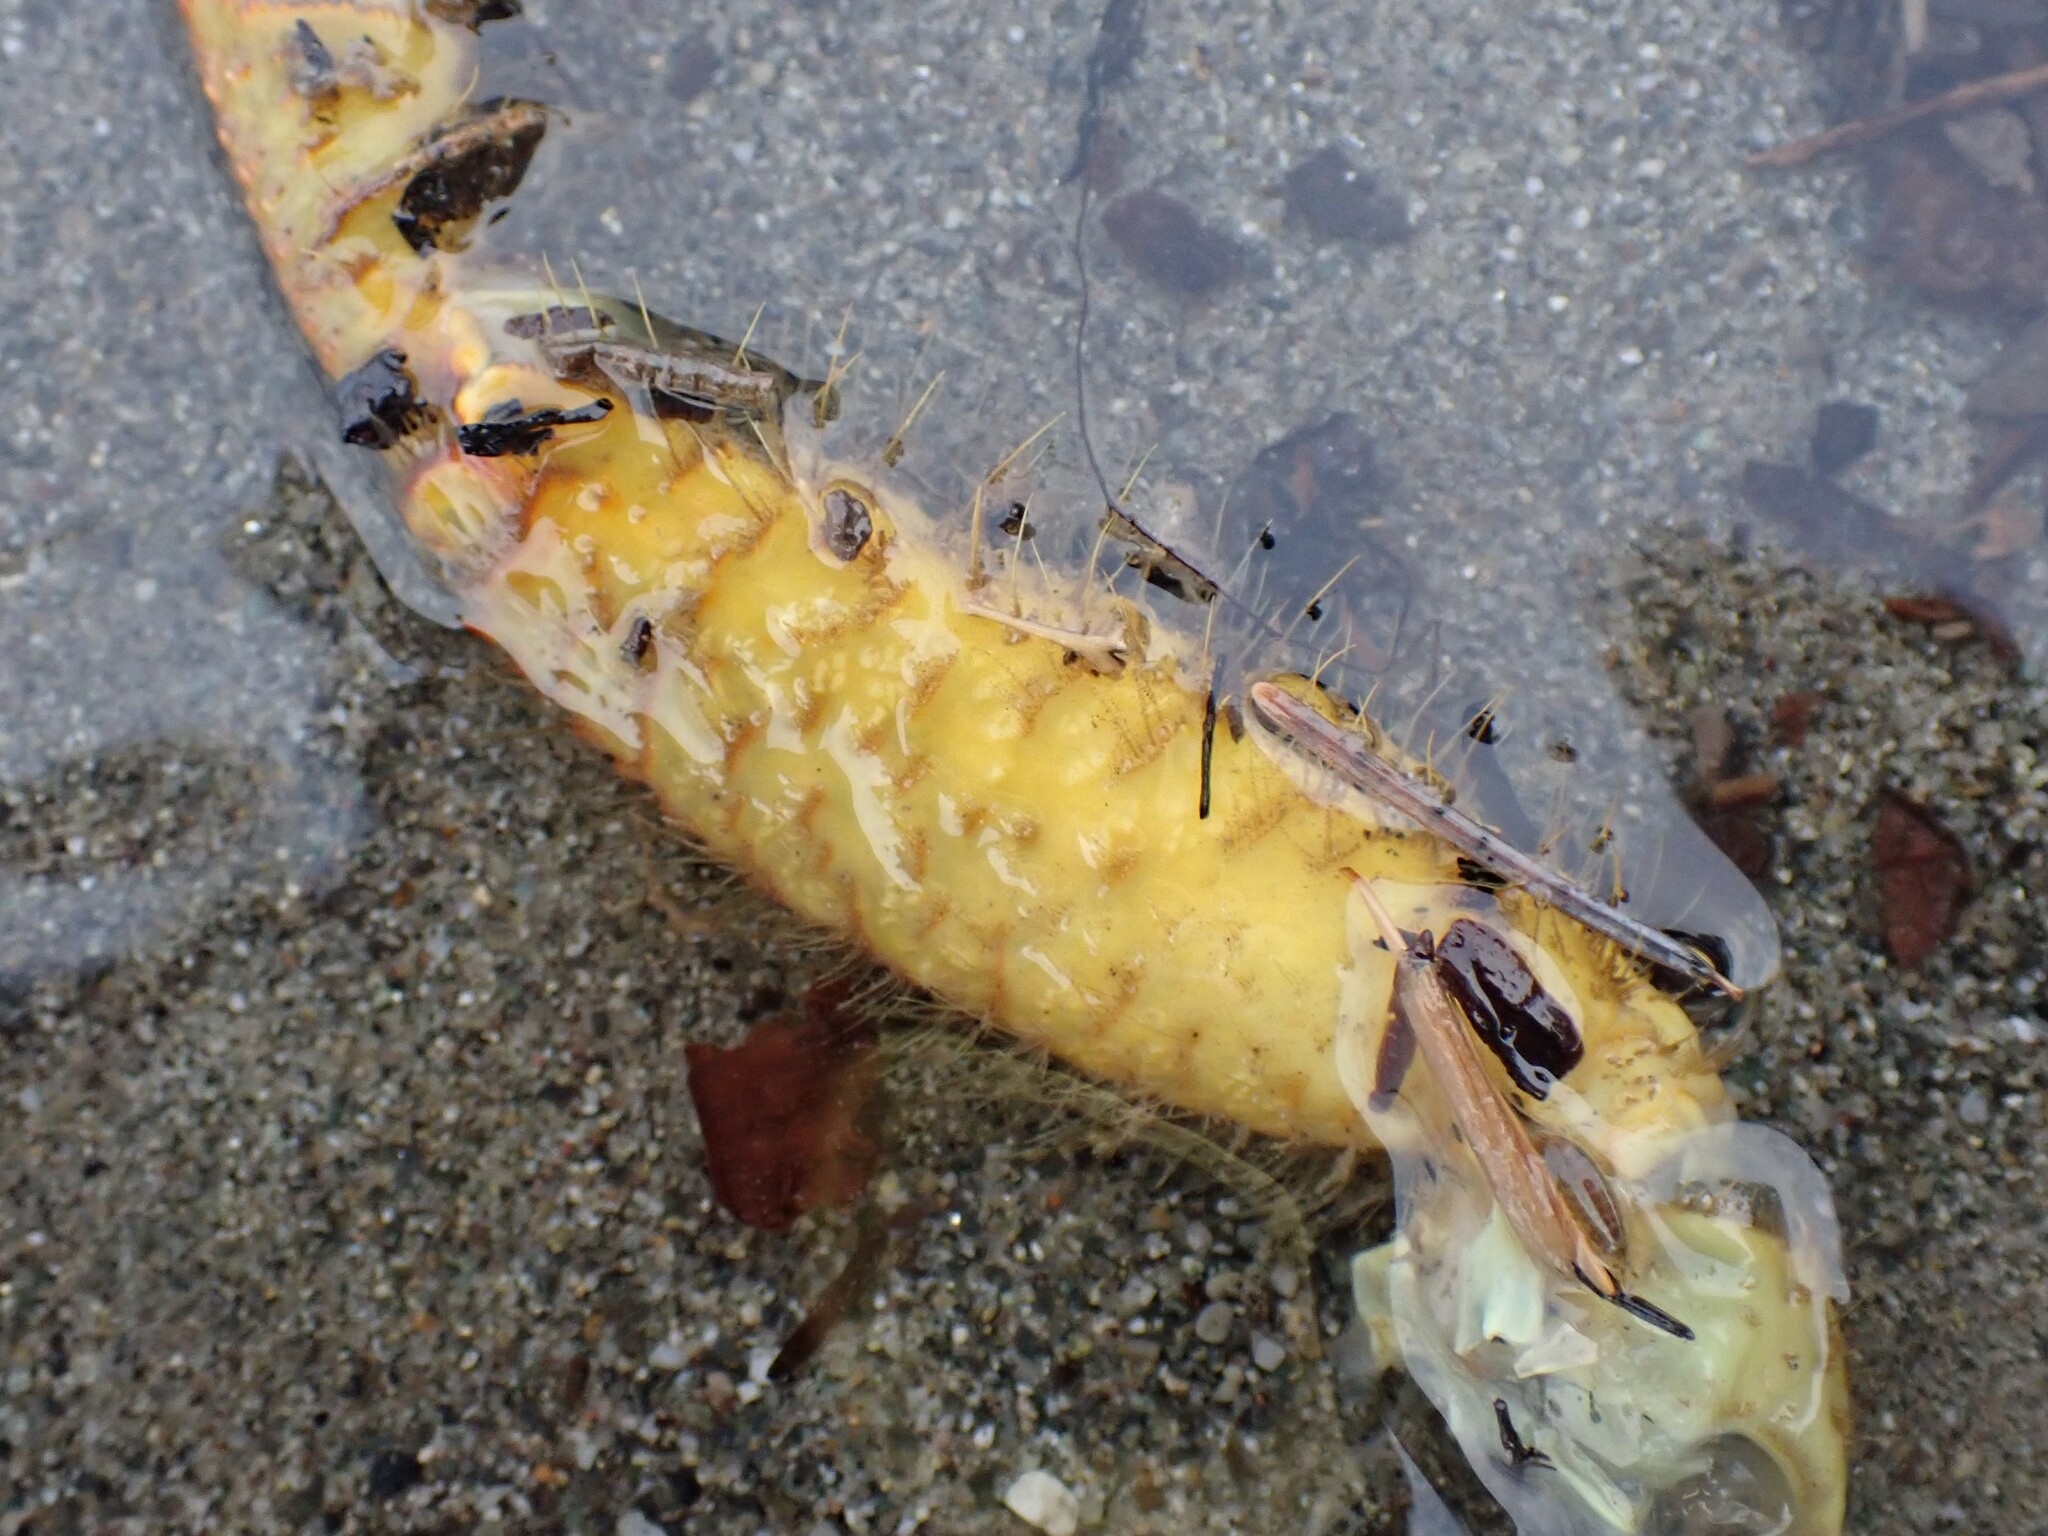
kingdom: Animalia
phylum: Arthropoda
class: Malacostraca
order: Decapoda
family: Cheiragonidae
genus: Telmessus
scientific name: Telmessus cheiragonus
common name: Helmet crab
